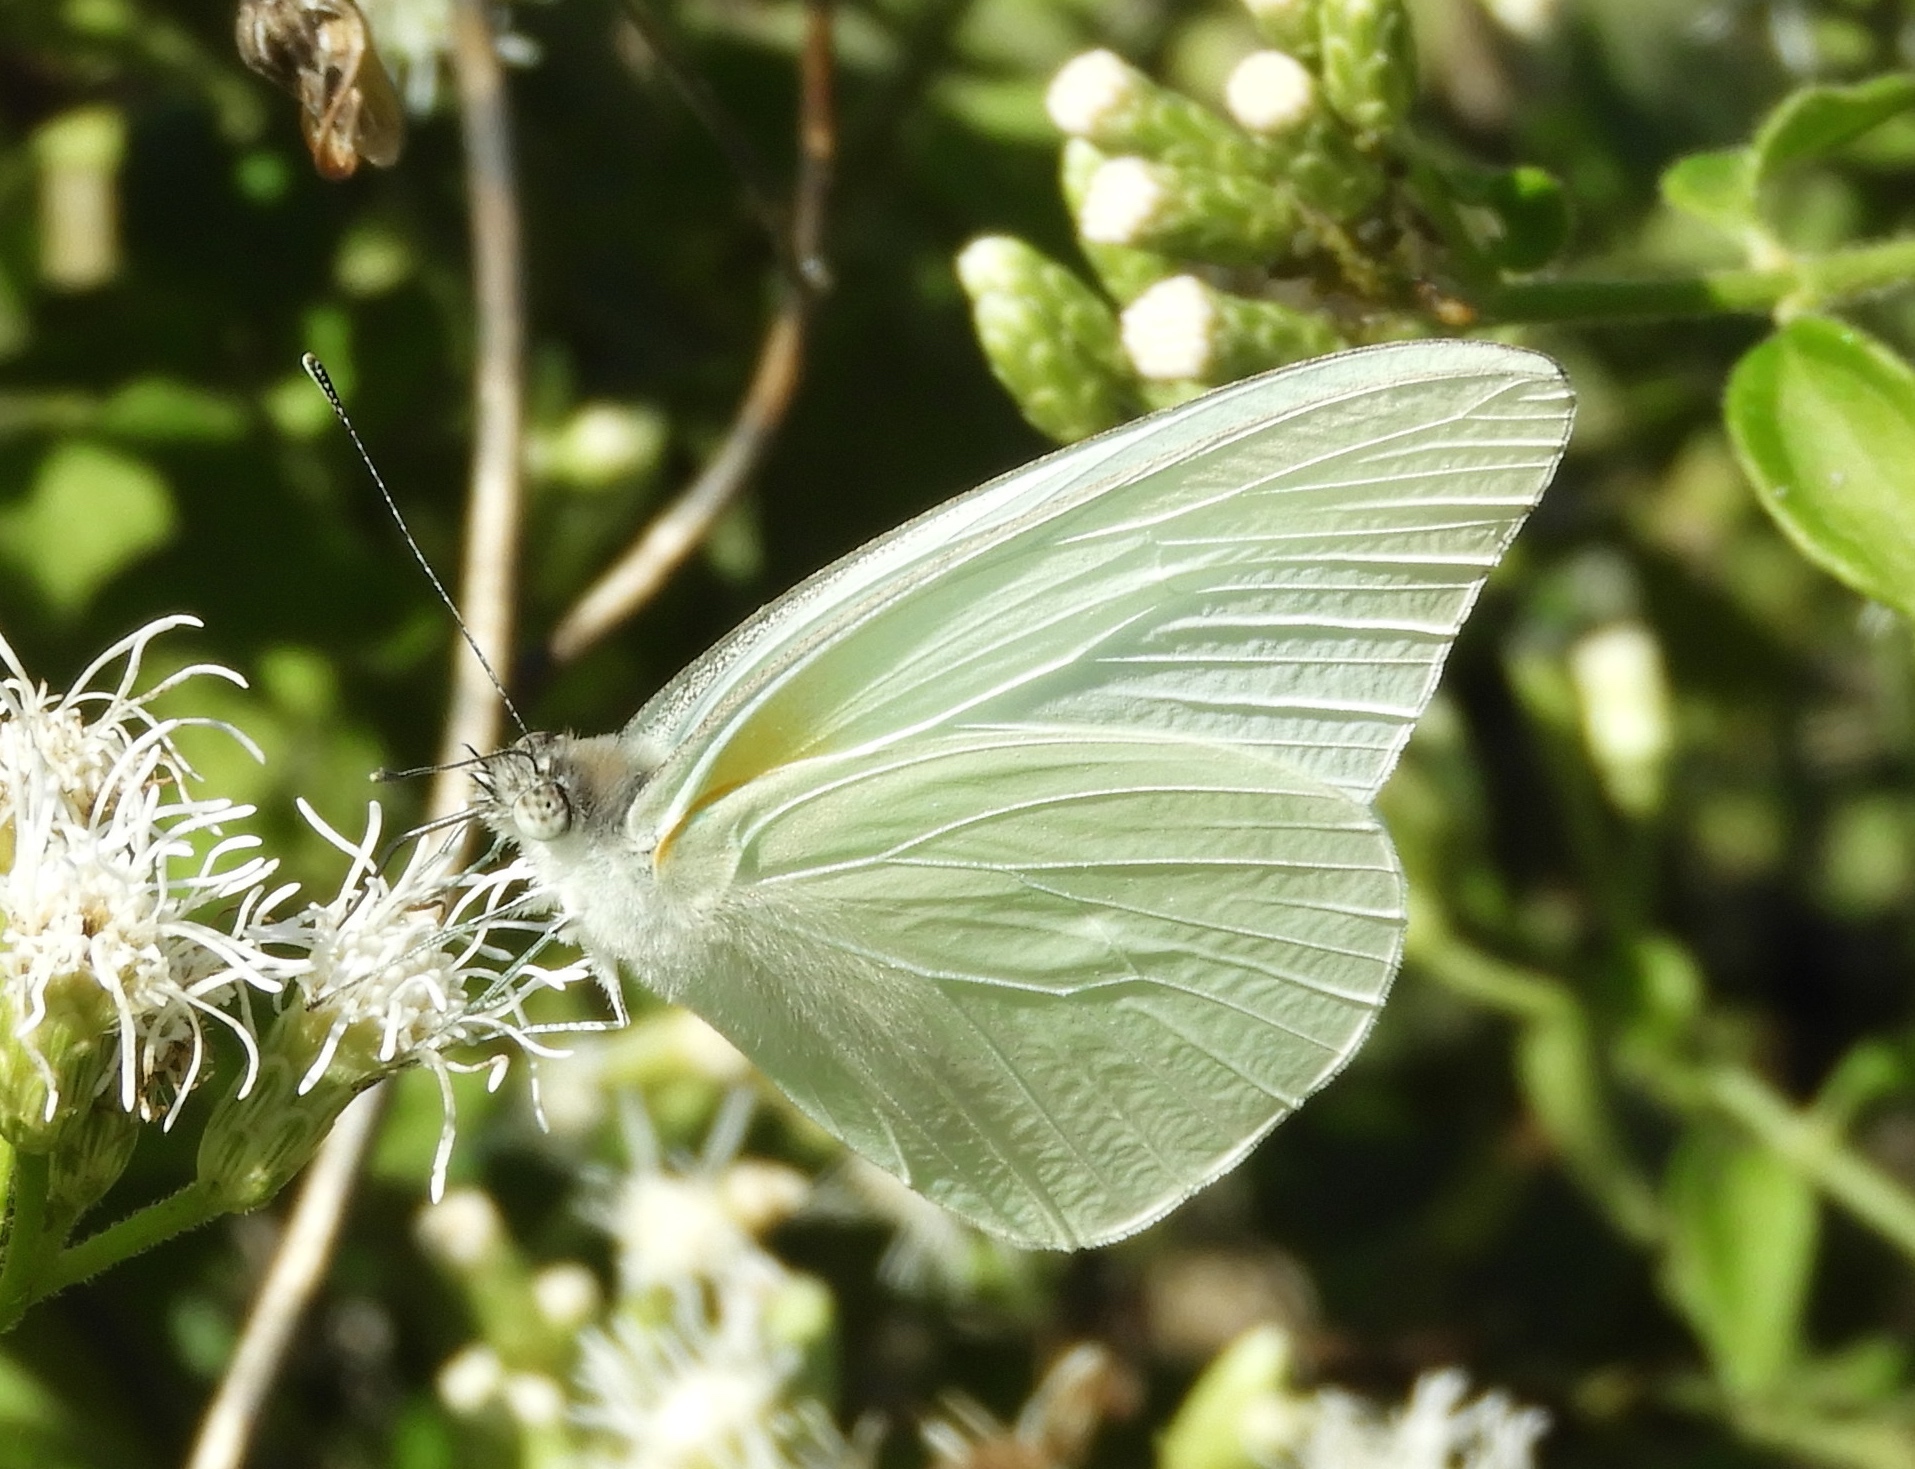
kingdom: Animalia
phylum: Arthropoda
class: Insecta
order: Lepidoptera
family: Pieridae
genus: Glutophrissa
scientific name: Glutophrissa drusilla
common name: Florida white
